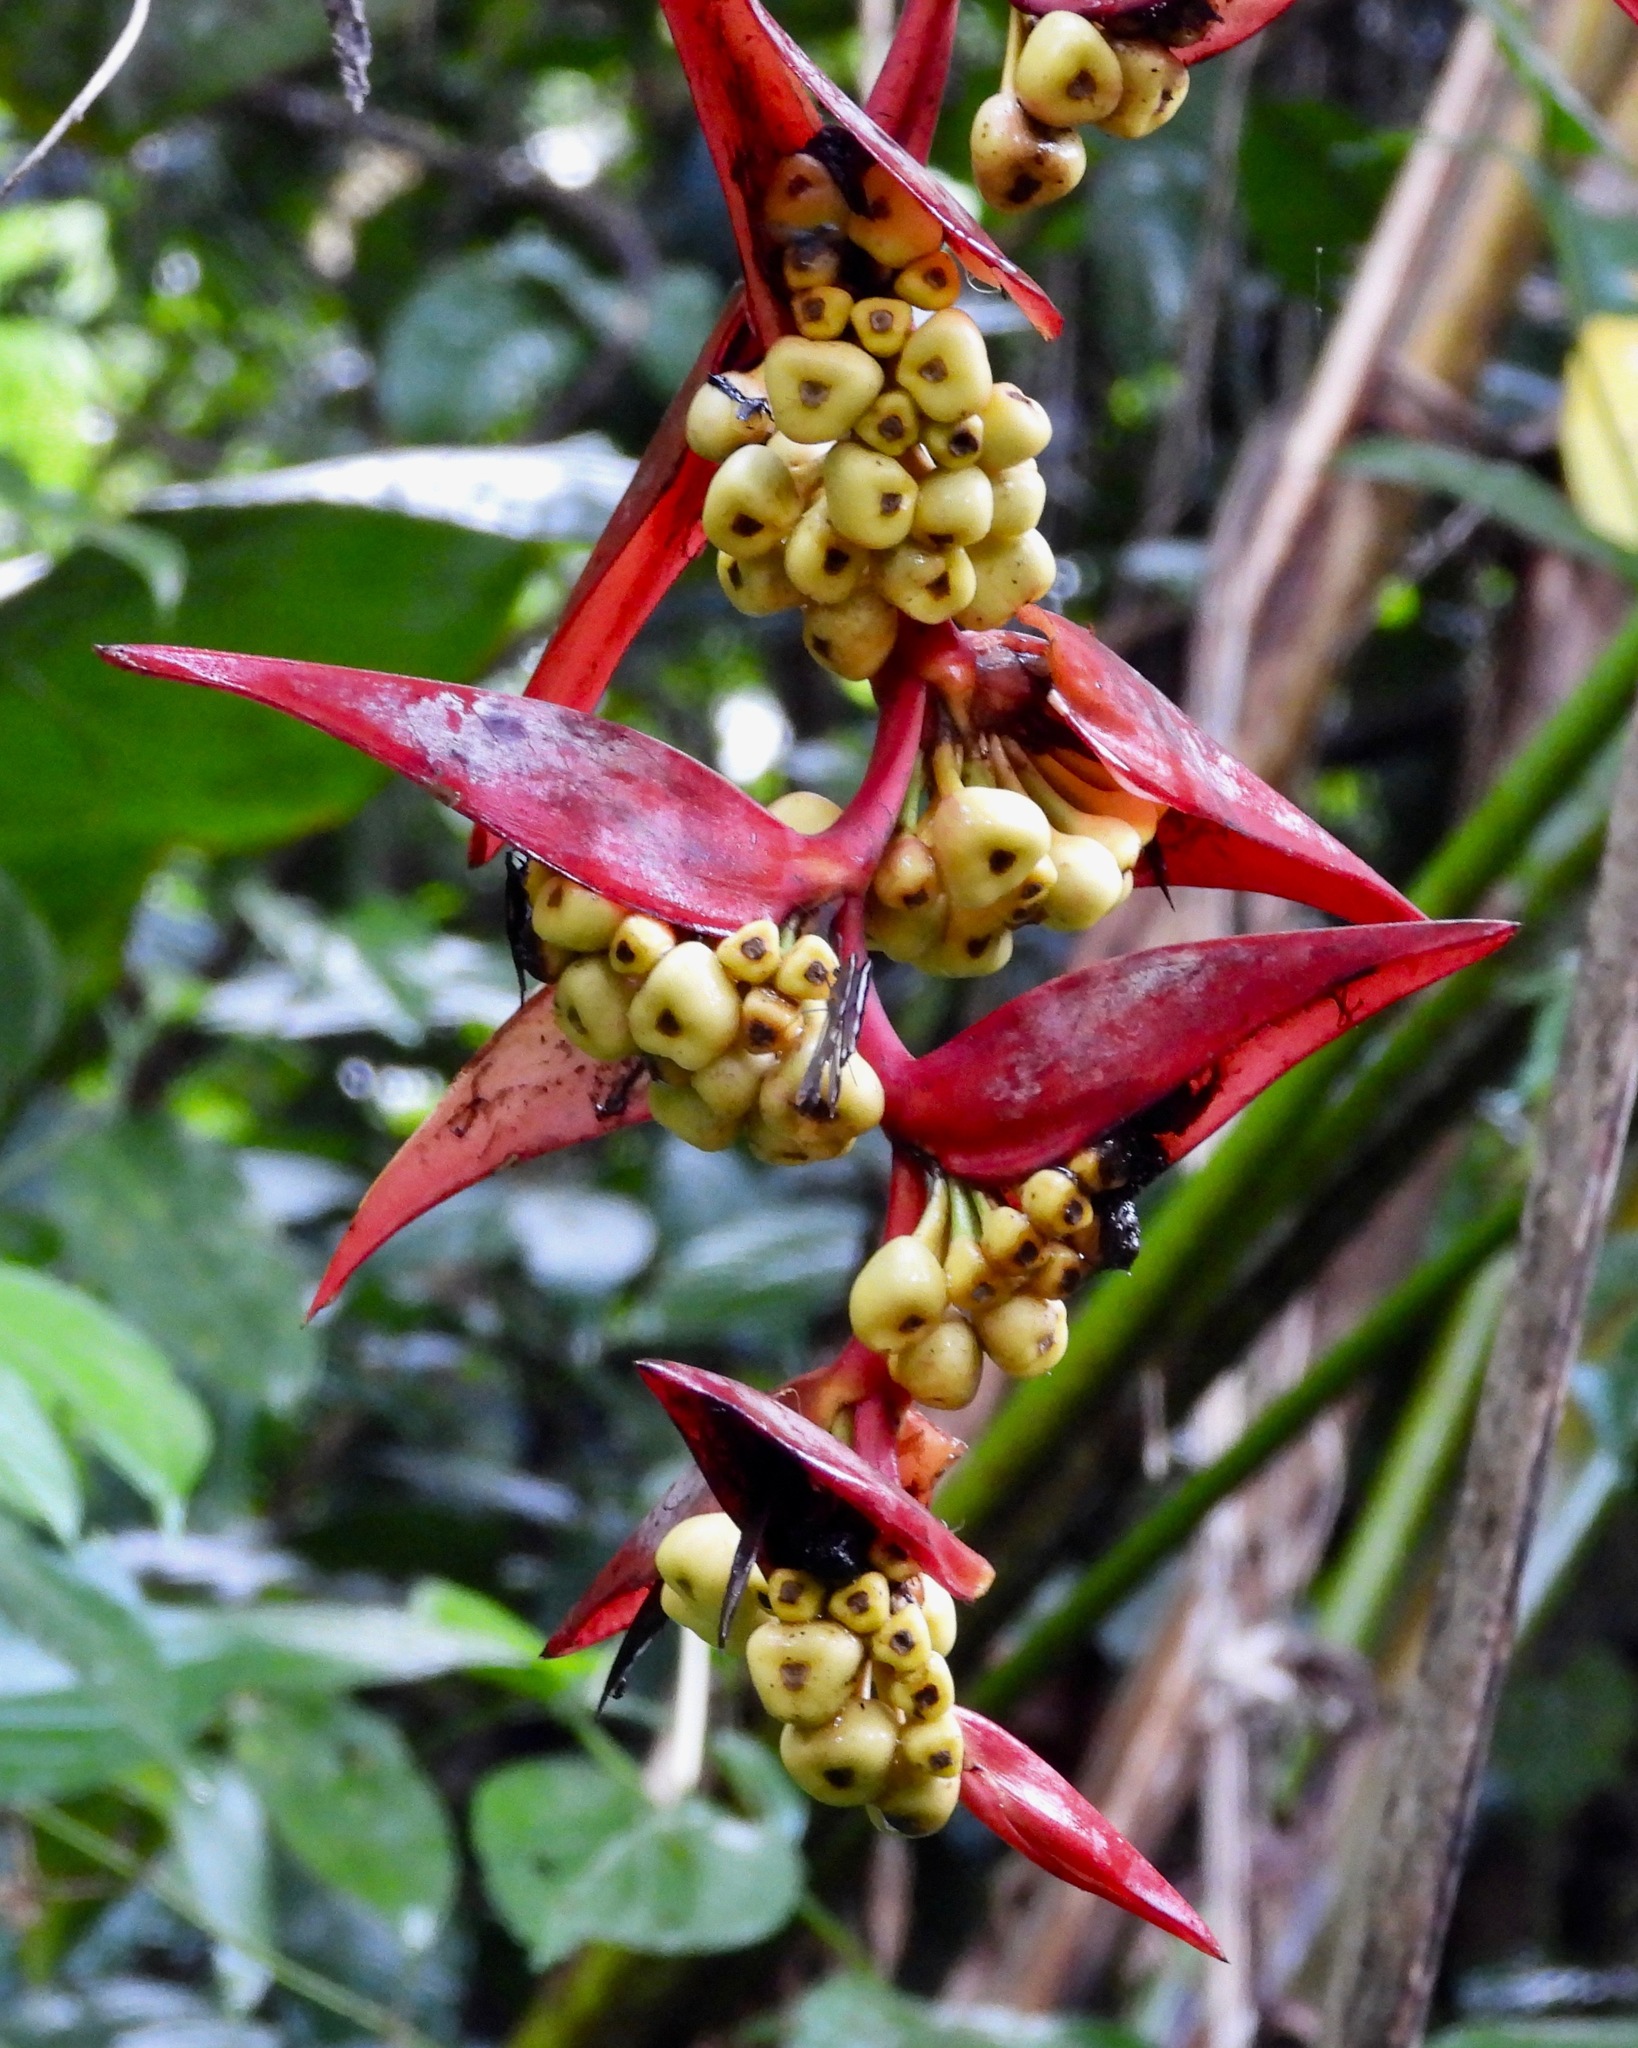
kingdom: Plantae
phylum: Tracheophyta
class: Liliopsida
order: Zingiberales
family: Heliconiaceae
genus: Heliconia
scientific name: Heliconia collinsiana
